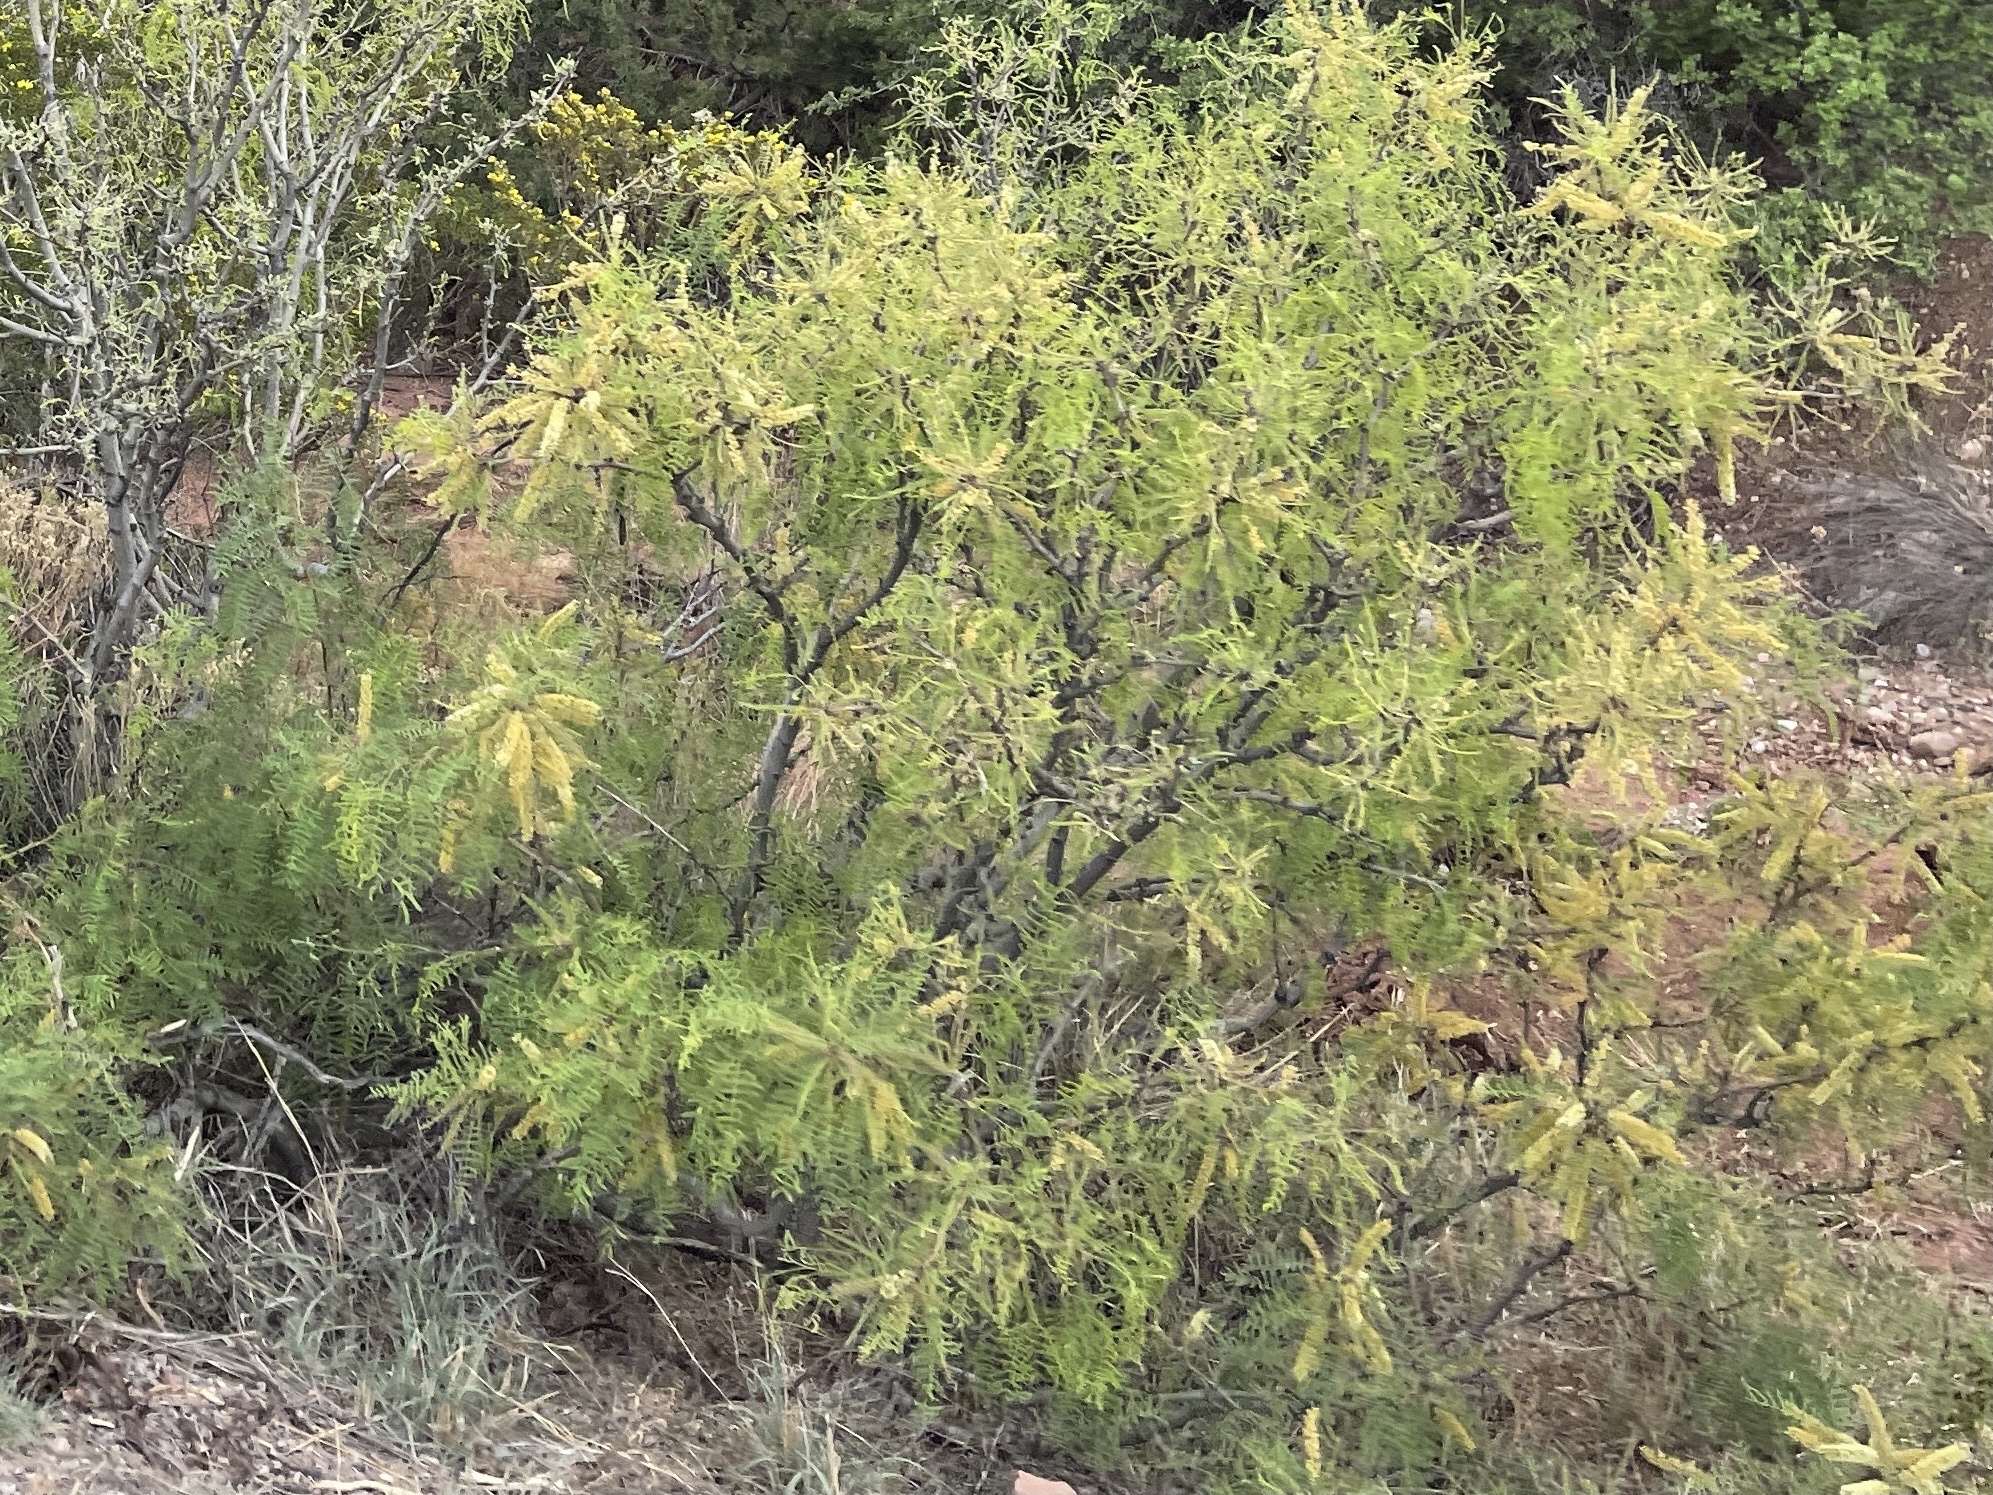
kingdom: Plantae
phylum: Tracheophyta
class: Magnoliopsida
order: Fabales
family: Fabaceae
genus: Prosopis
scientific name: Prosopis glandulosa
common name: Honey mesquite
